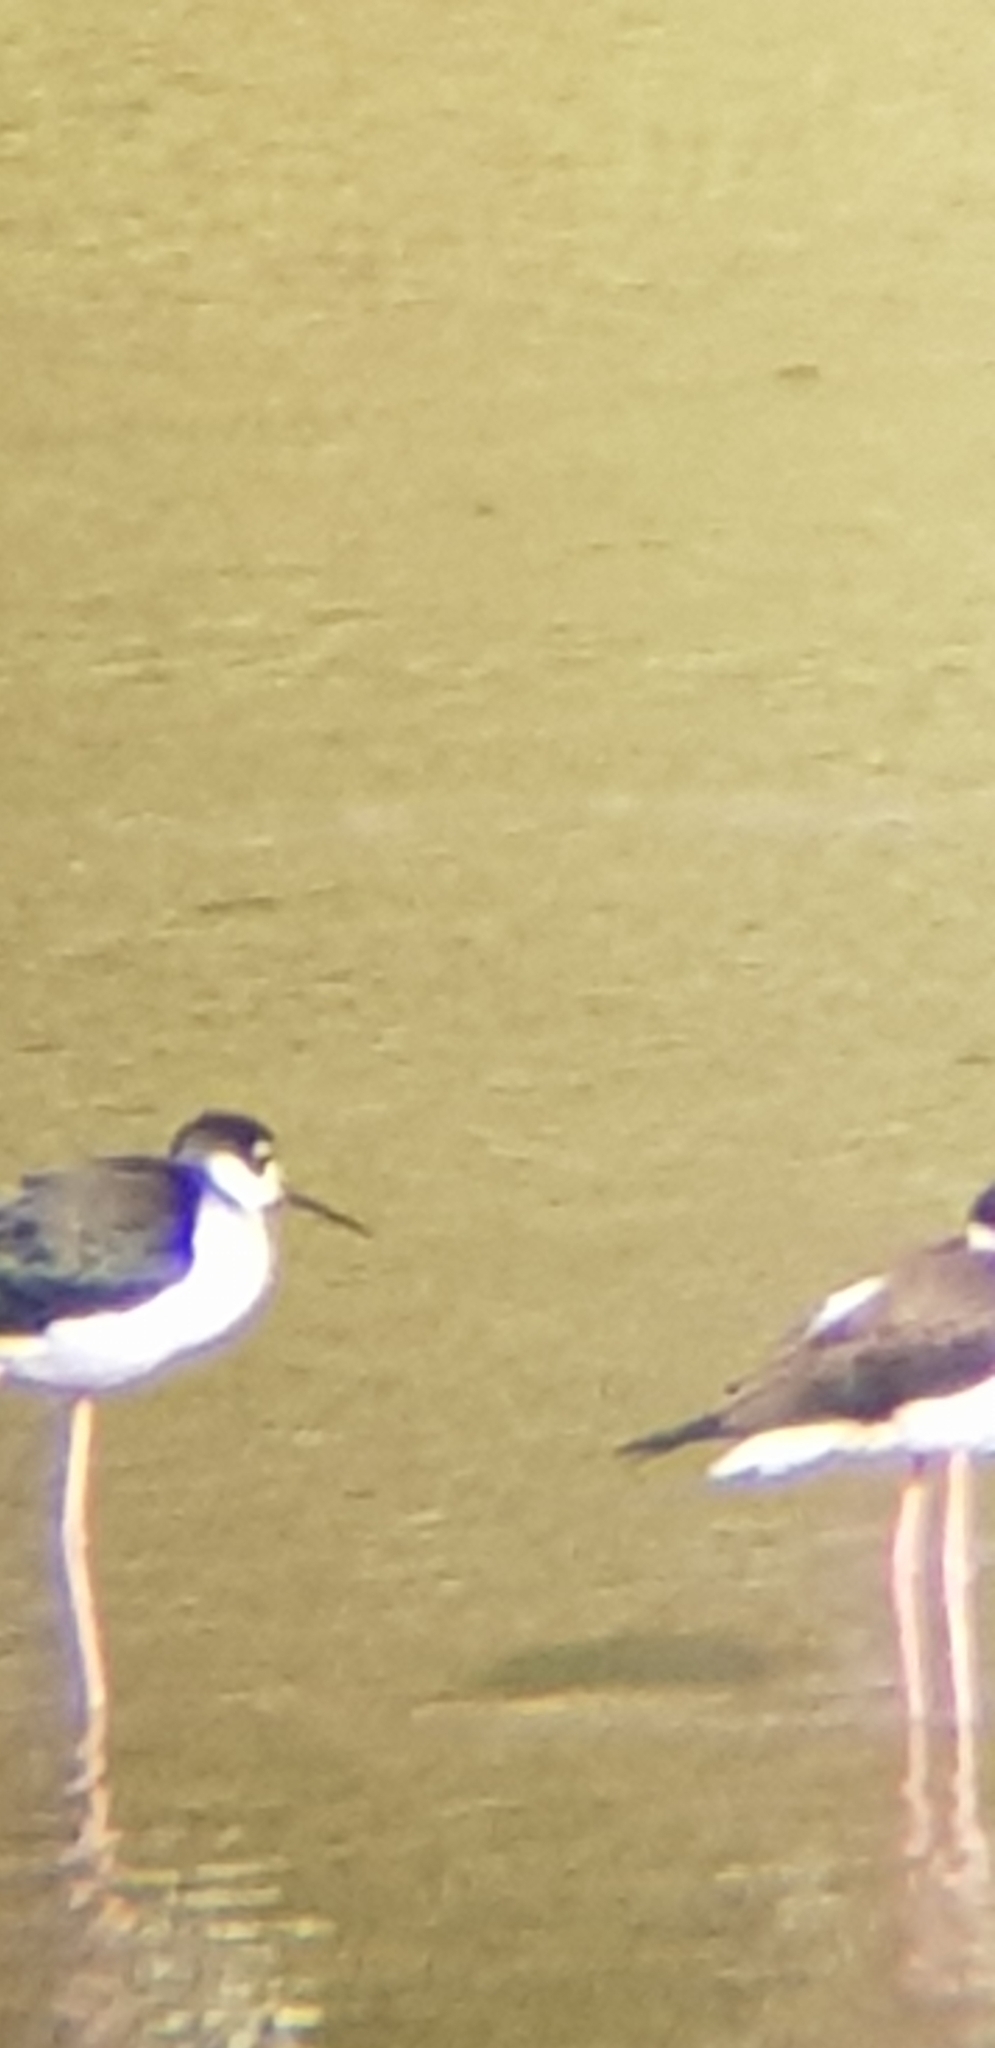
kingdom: Animalia
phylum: Chordata
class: Aves
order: Charadriiformes
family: Recurvirostridae
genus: Himantopus
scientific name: Himantopus mexicanus
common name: Black-necked stilt
